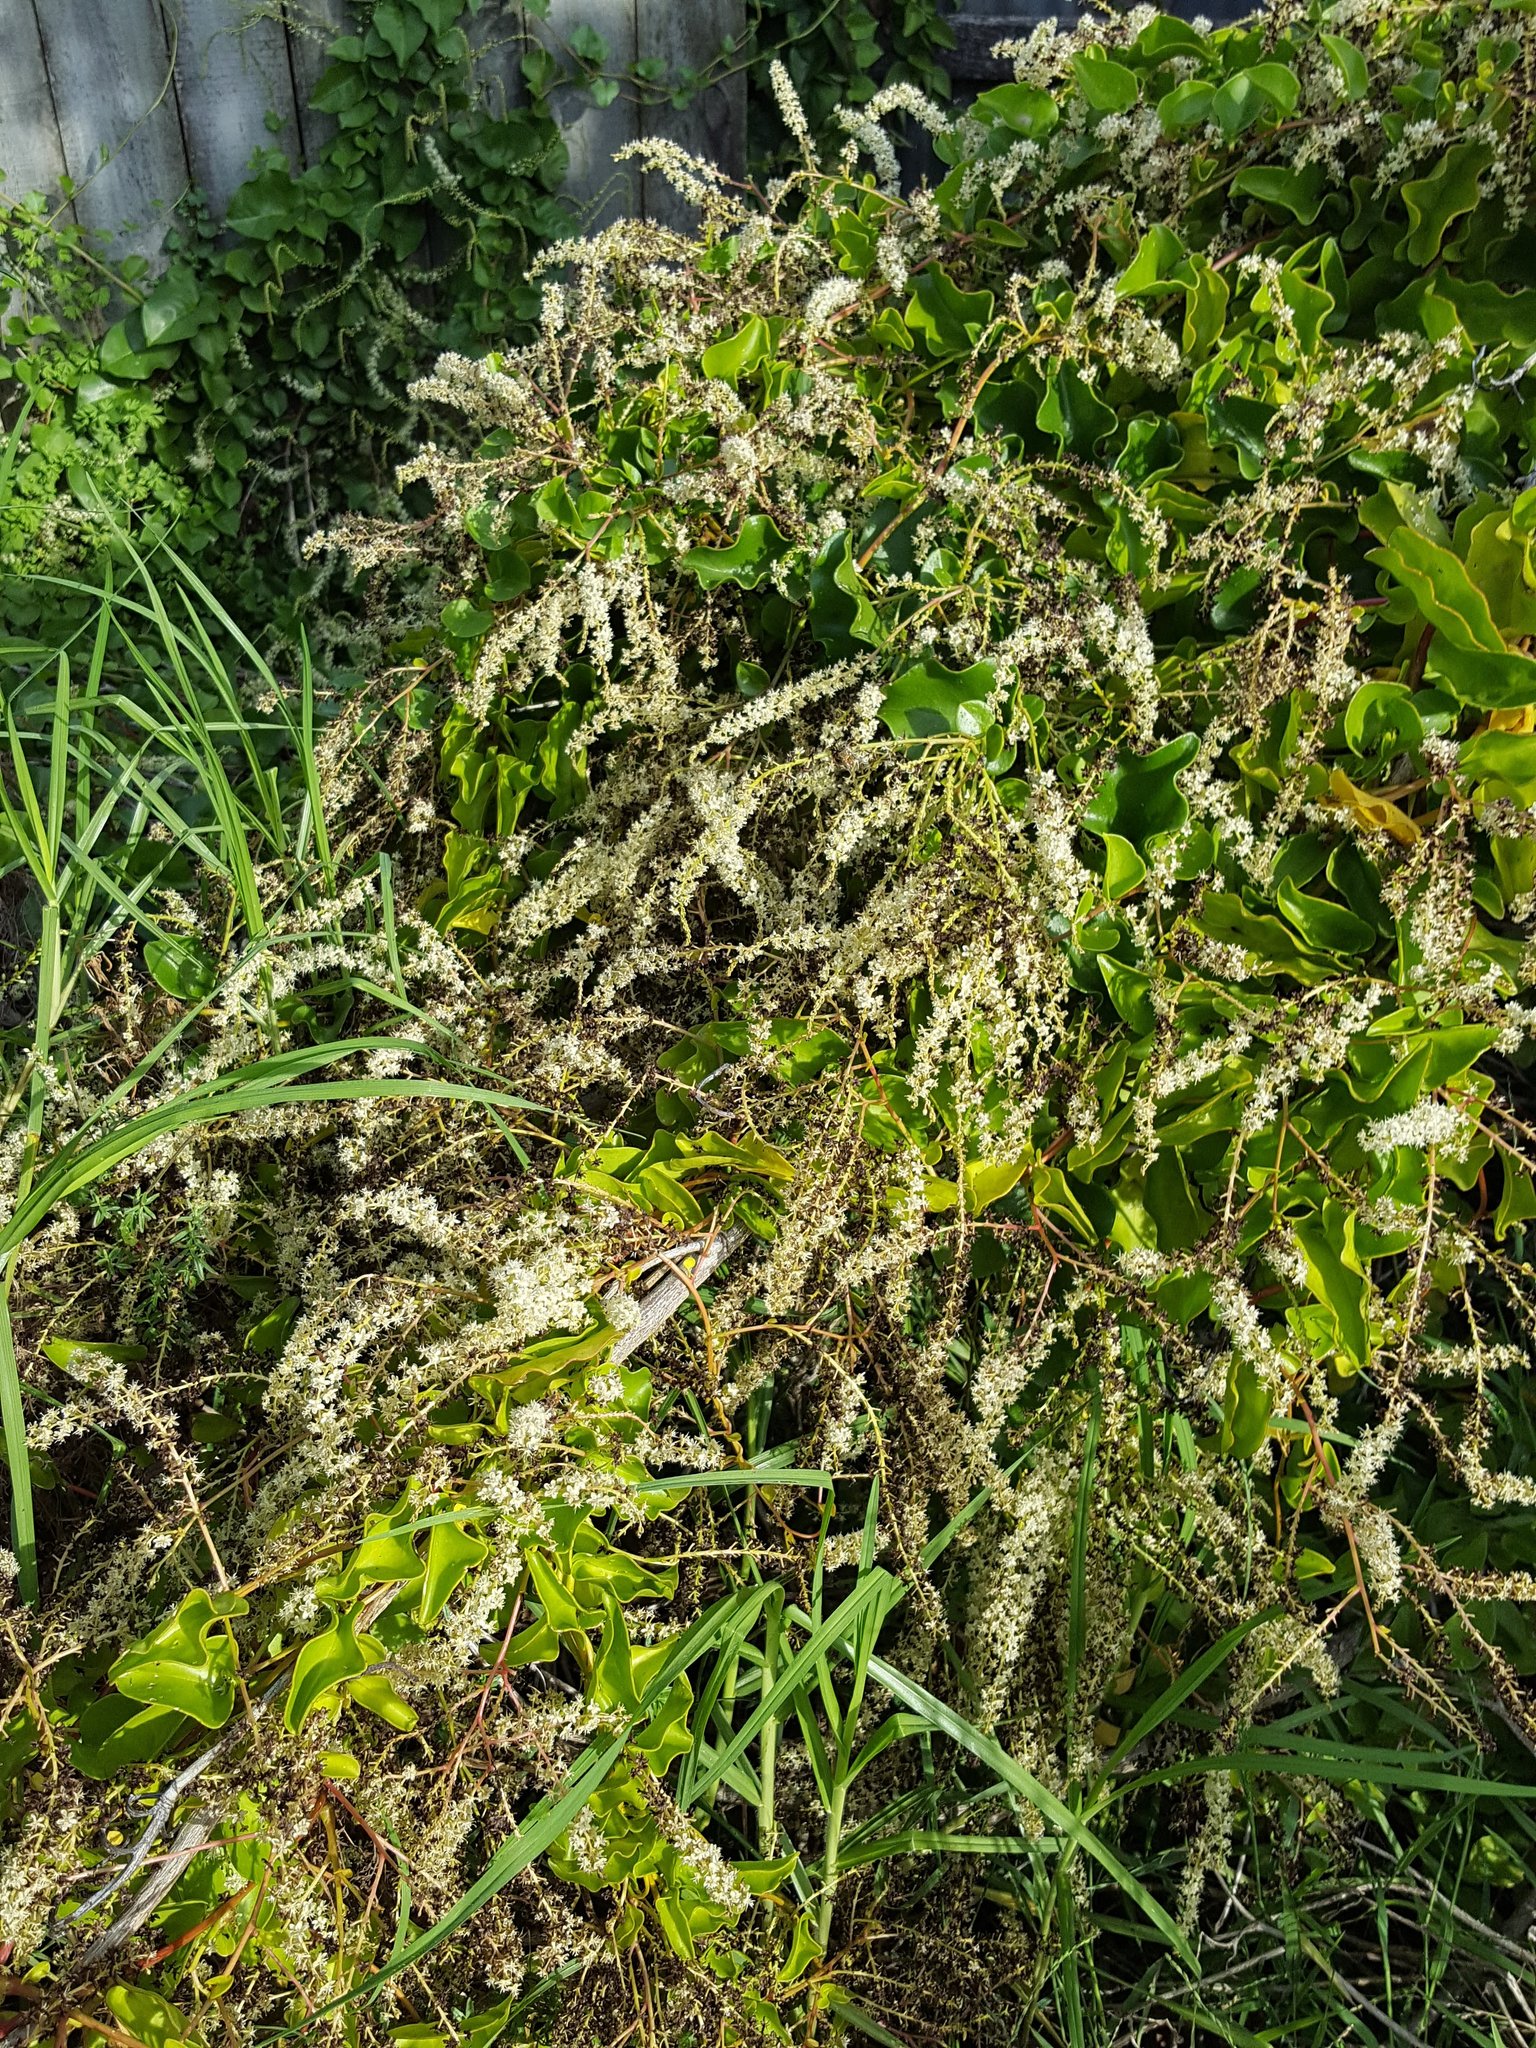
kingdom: Plantae
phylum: Tracheophyta
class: Magnoliopsida
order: Caryophyllales
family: Basellaceae
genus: Anredera
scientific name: Anredera cordifolia
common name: Heartleaf madeiravine
